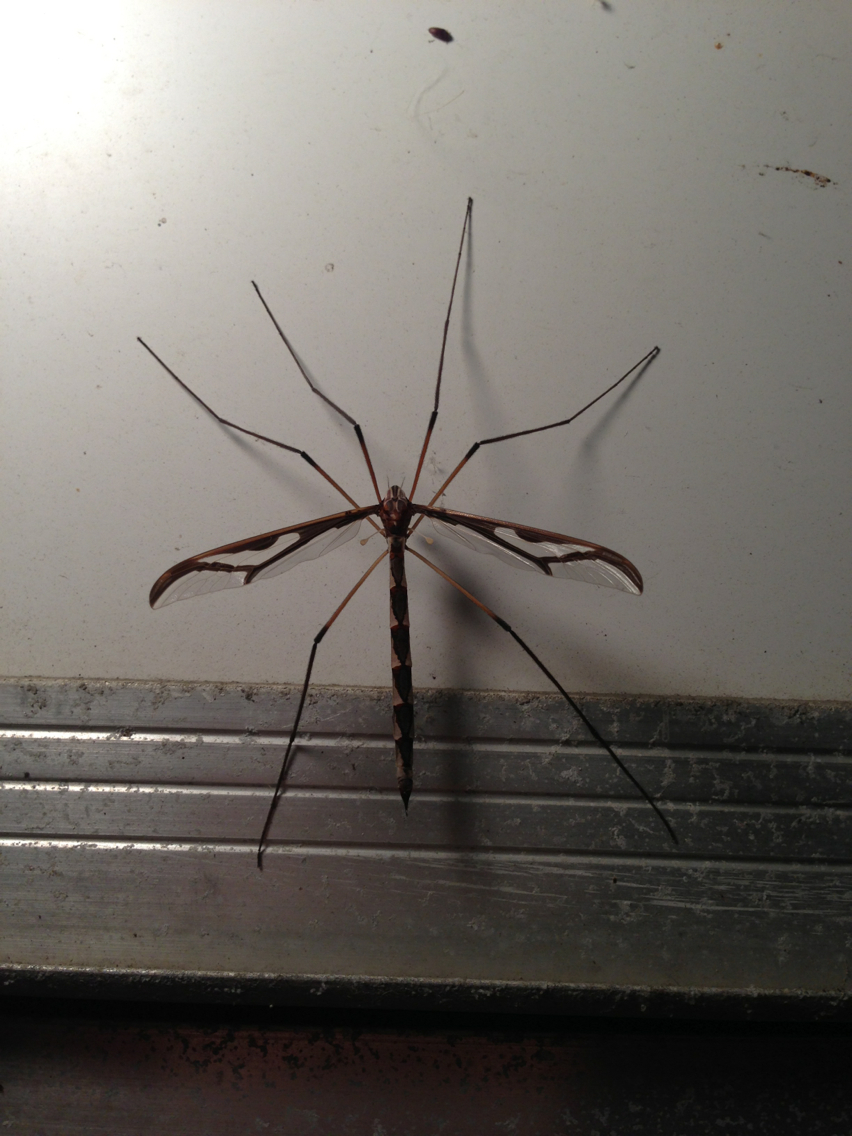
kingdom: Animalia
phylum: Arthropoda
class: Insecta
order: Diptera
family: Pediciidae
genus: Pedicia
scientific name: Pedicia albivitta
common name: Giant eastern crane fly
